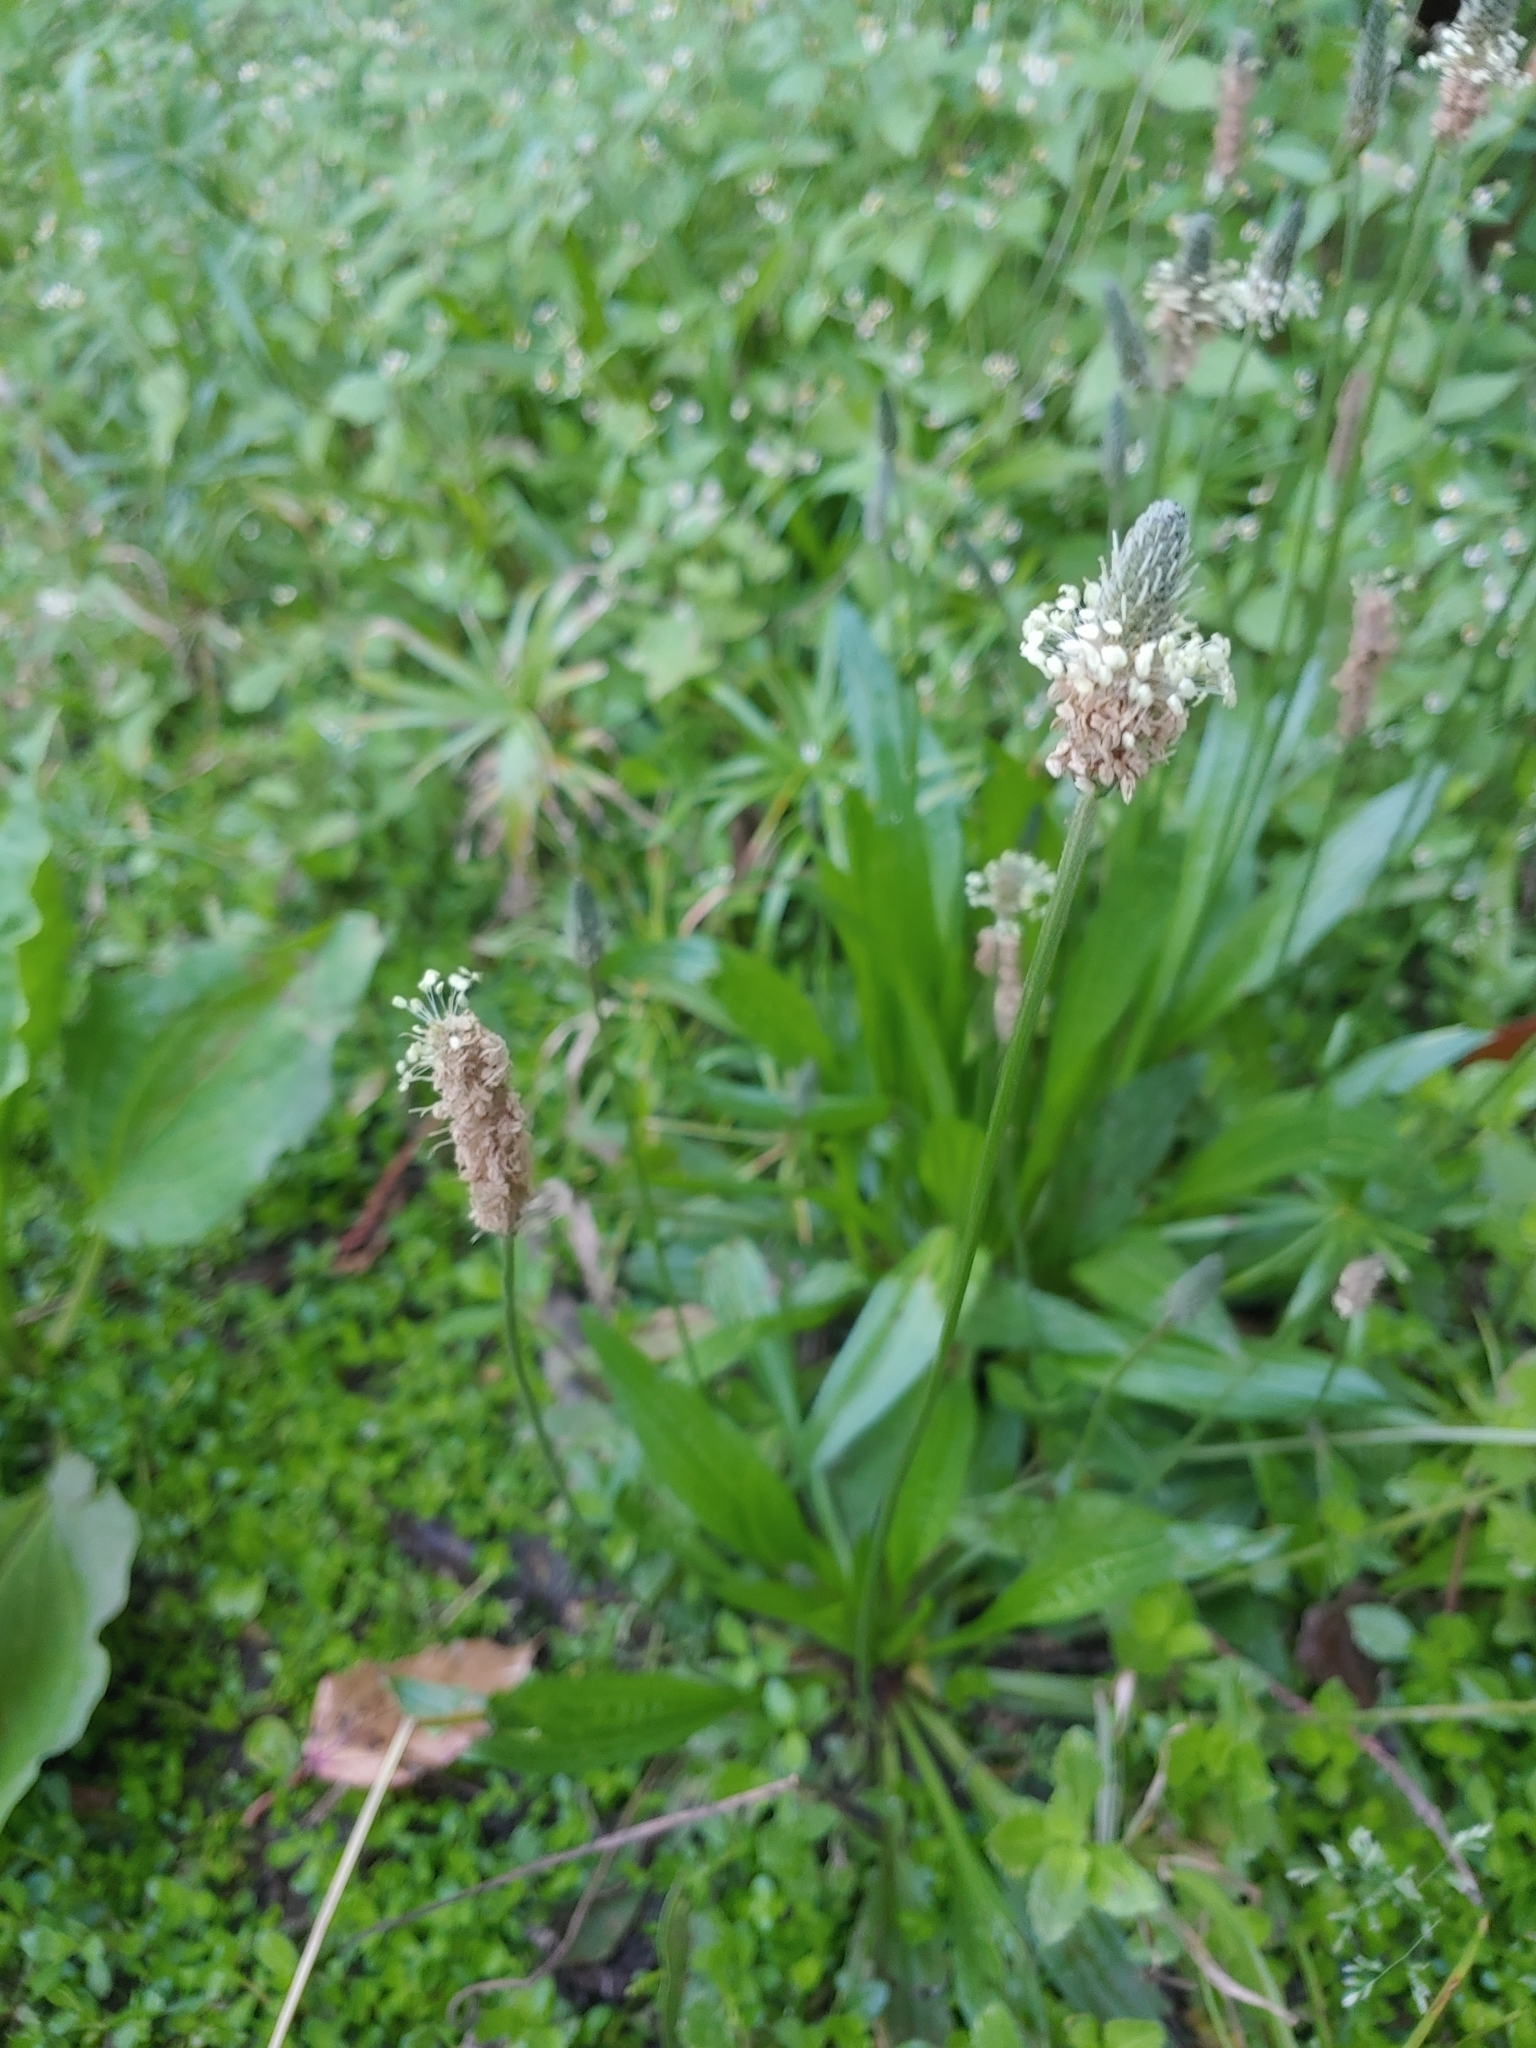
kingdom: Plantae
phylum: Tracheophyta
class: Magnoliopsida
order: Lamiales
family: Plantaginaceae
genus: Plantago
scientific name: Plantago lanceolata
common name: Ribwort plantain
